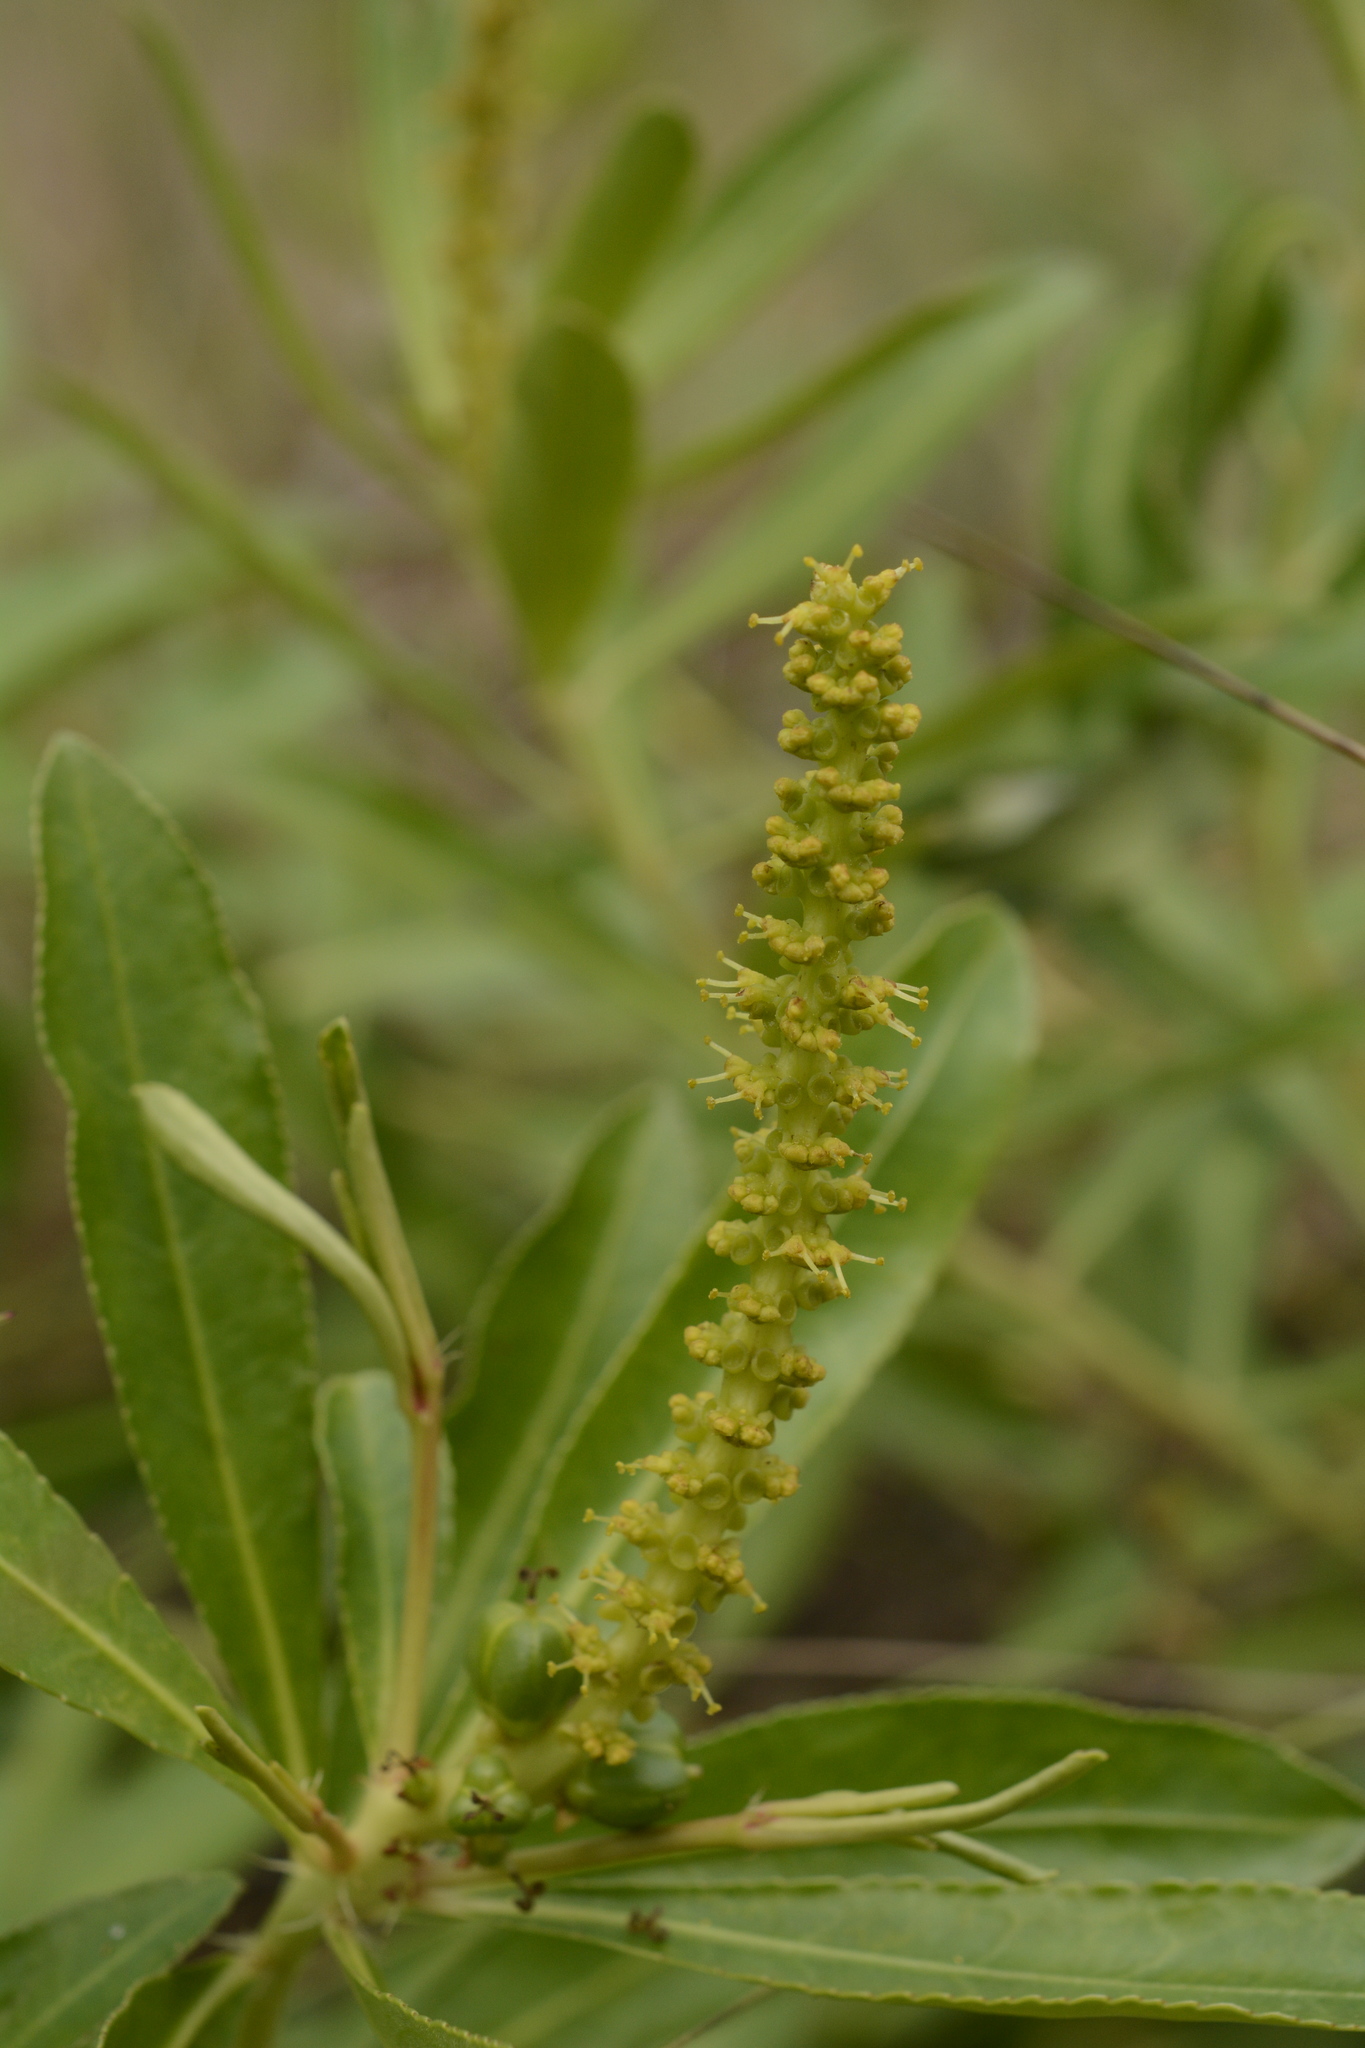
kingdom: Plantae
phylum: Tracheophyta
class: Magnoliopsida
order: Malpighiales
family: Euphorbiaceae
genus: Stillingia
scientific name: Stillingia sylvatica
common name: Queen's-delight
